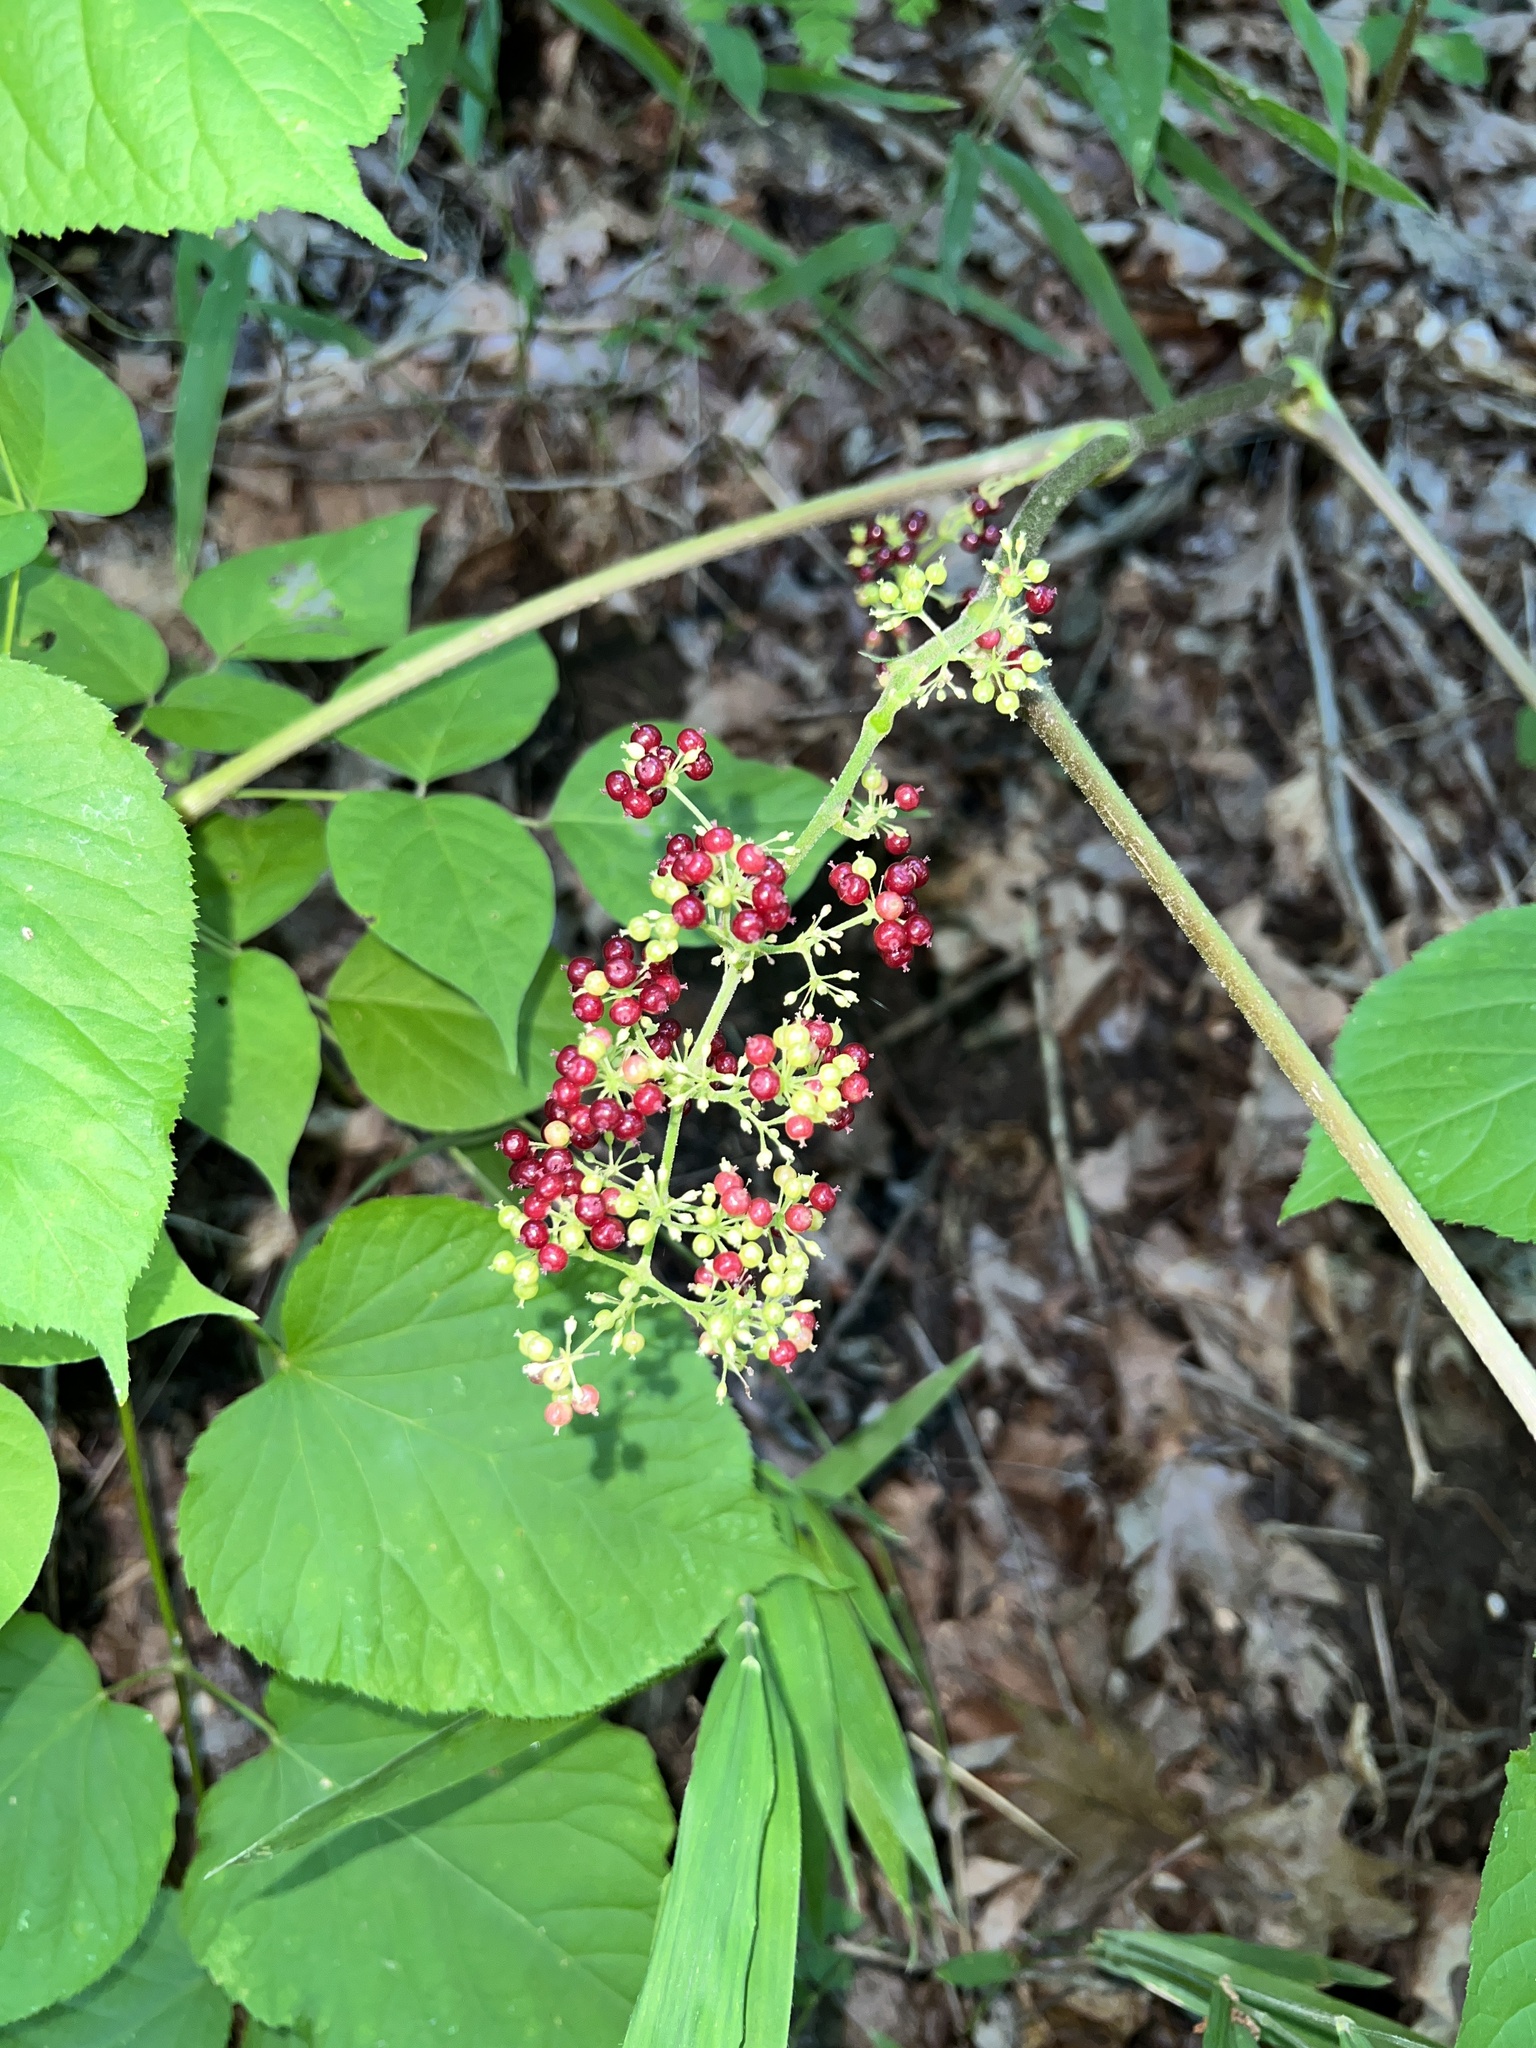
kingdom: Plantae
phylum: Tracheophyta
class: Magnoliopsida
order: Apiales
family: Araliaceae
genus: Aralia
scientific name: Aralia racemosa
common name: American-spikenard
